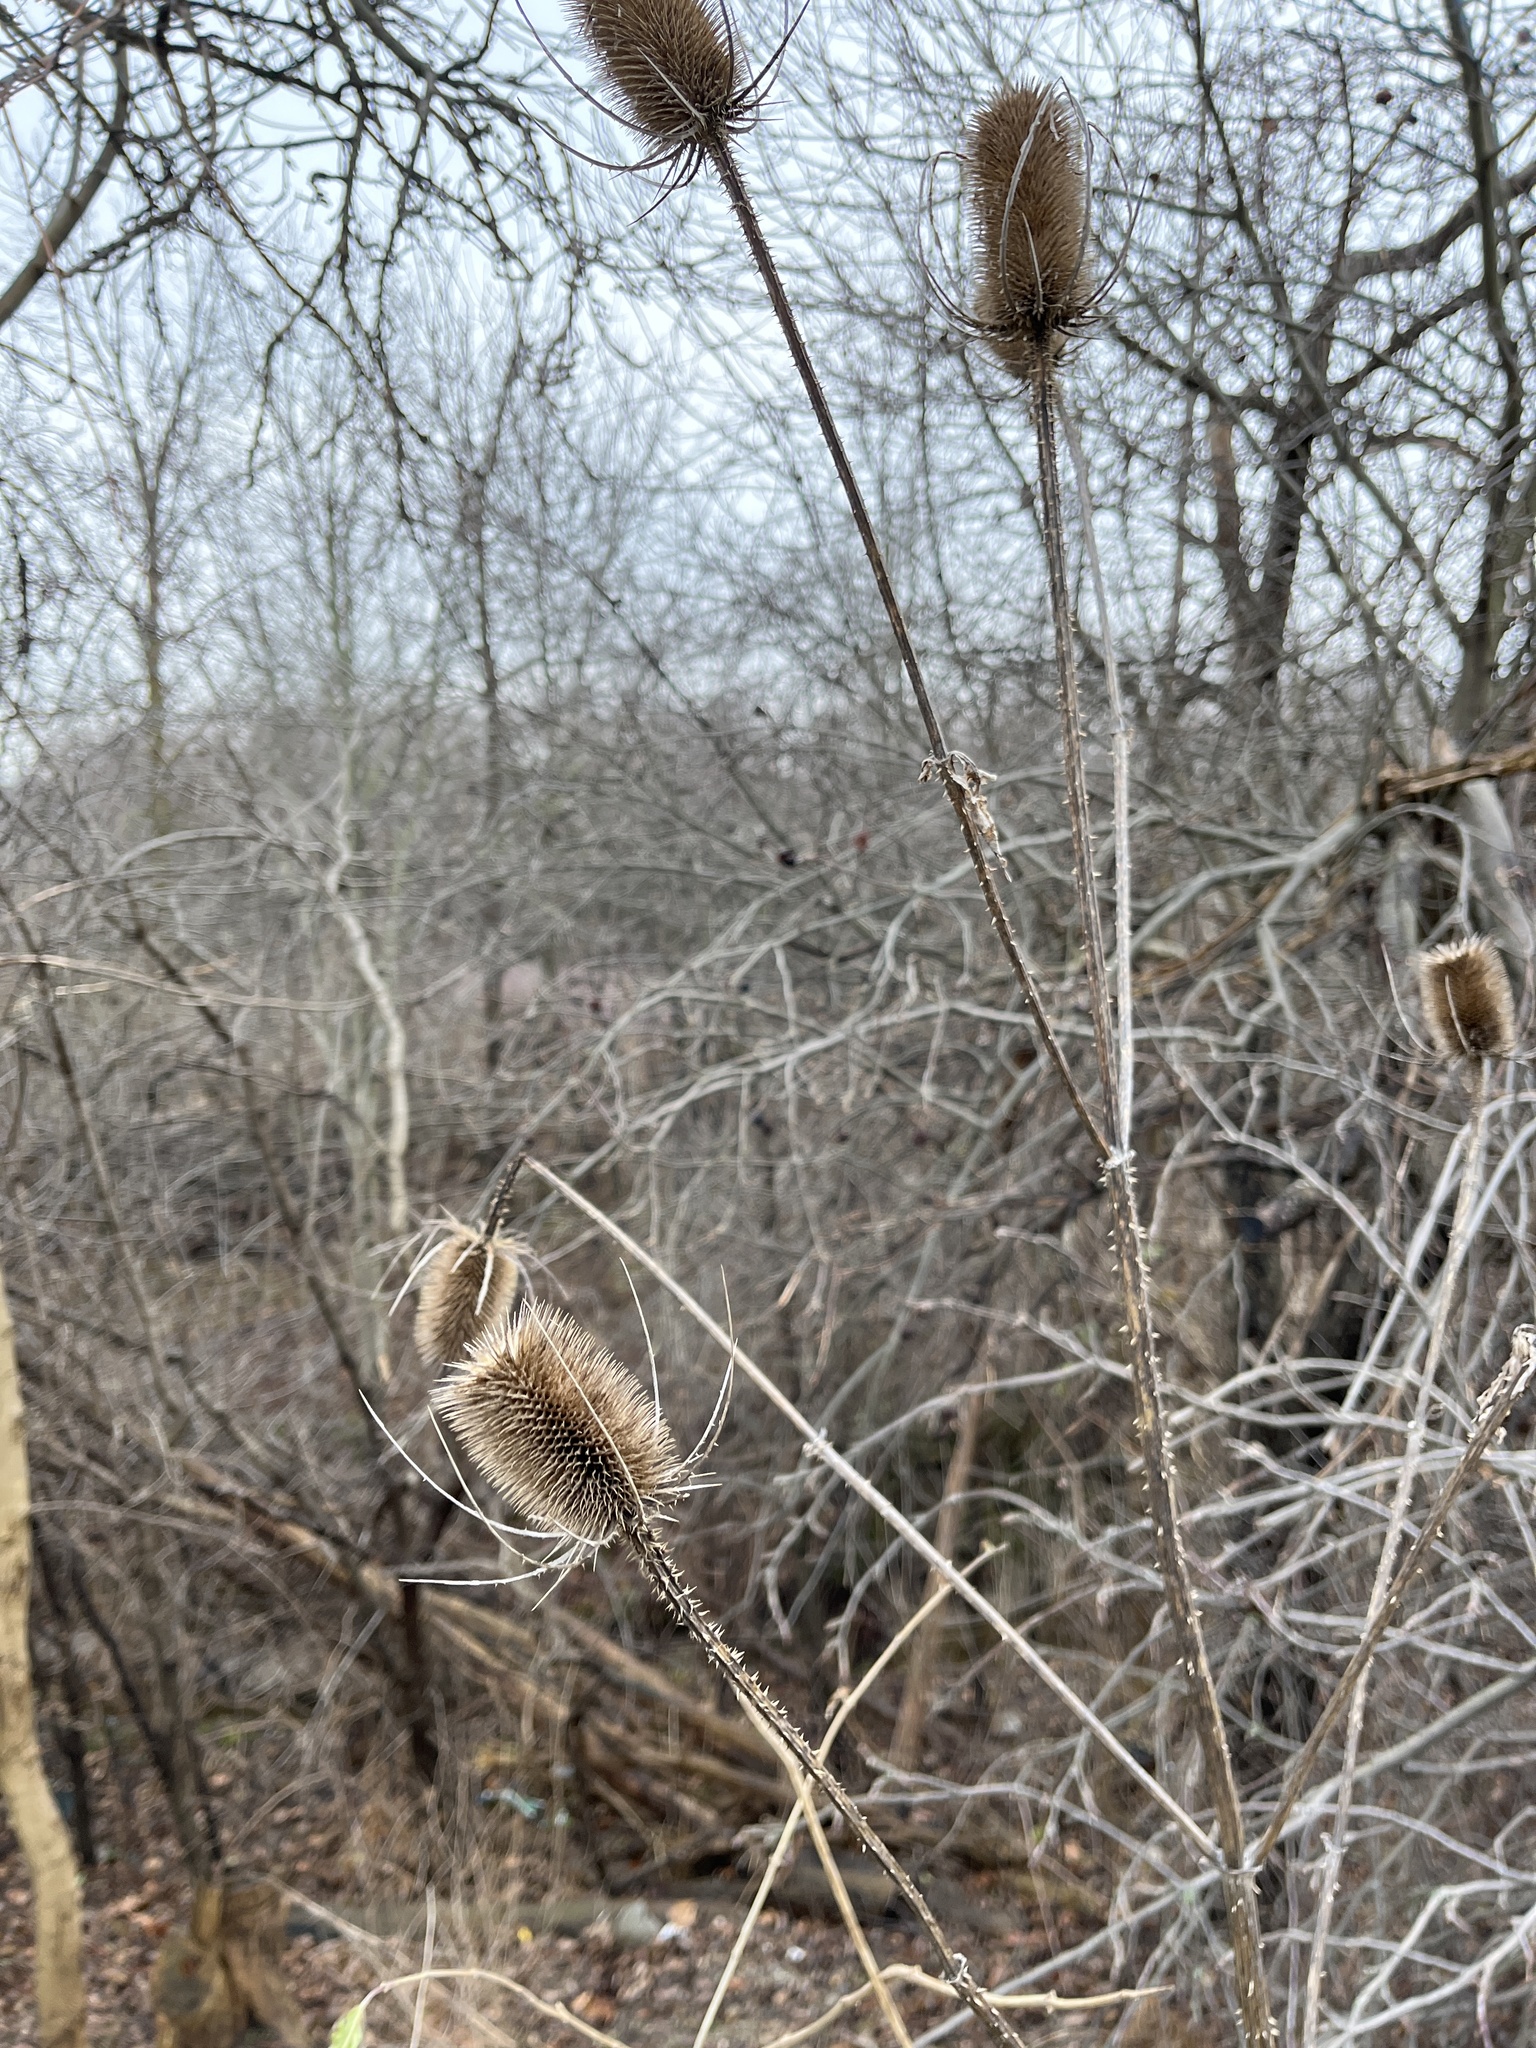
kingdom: Plantae
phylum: Tracheophyta
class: Magnoliopsida
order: Dipsacales
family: Caprifoliaceae
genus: Dipsacus
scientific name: Dipsacus fullonum
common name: Teasel
